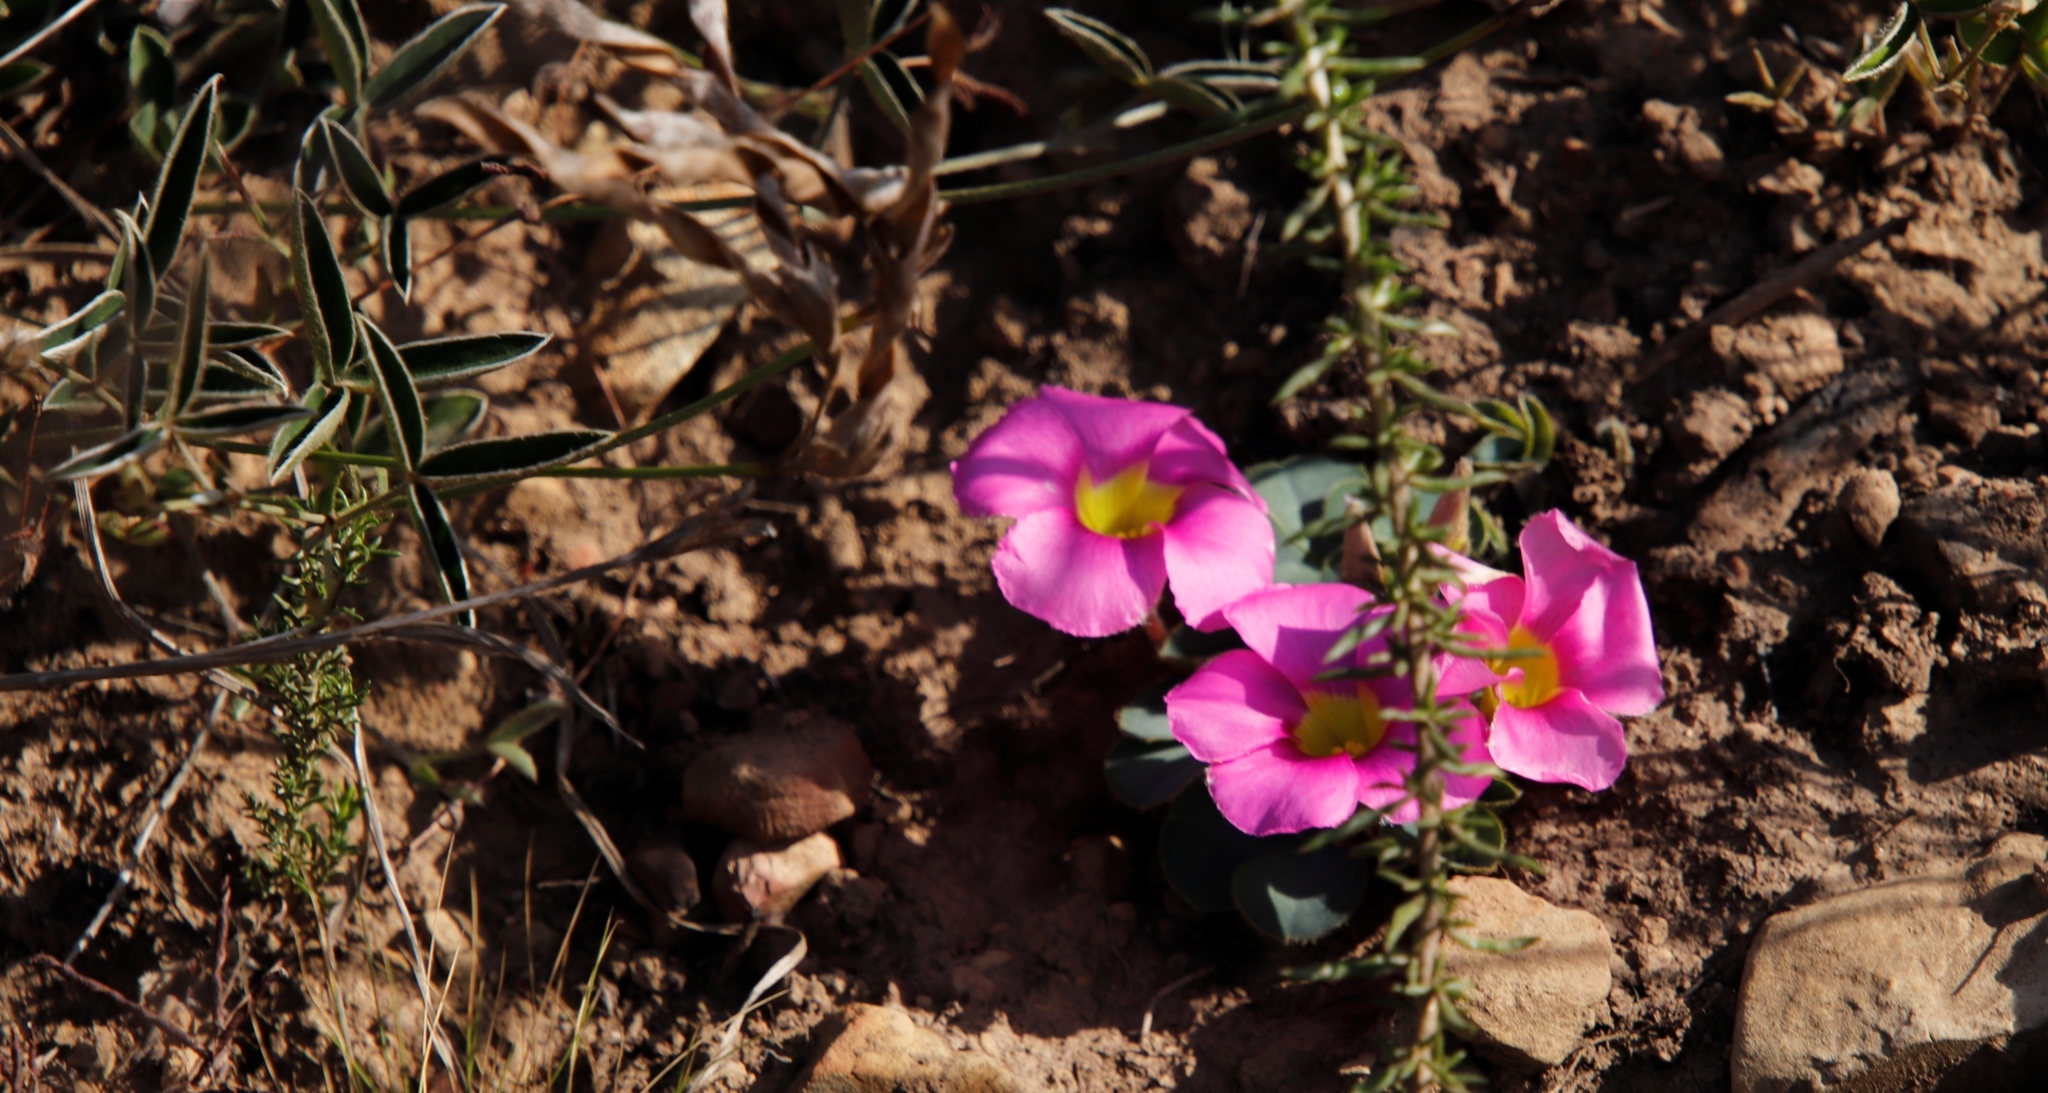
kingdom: Plantae
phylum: Tracheophyta
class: Magnoliopsida
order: Oxalidales
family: Oxalidaceae
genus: Oxalis
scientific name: Oxalis purpurea
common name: Purple woodsorrel
